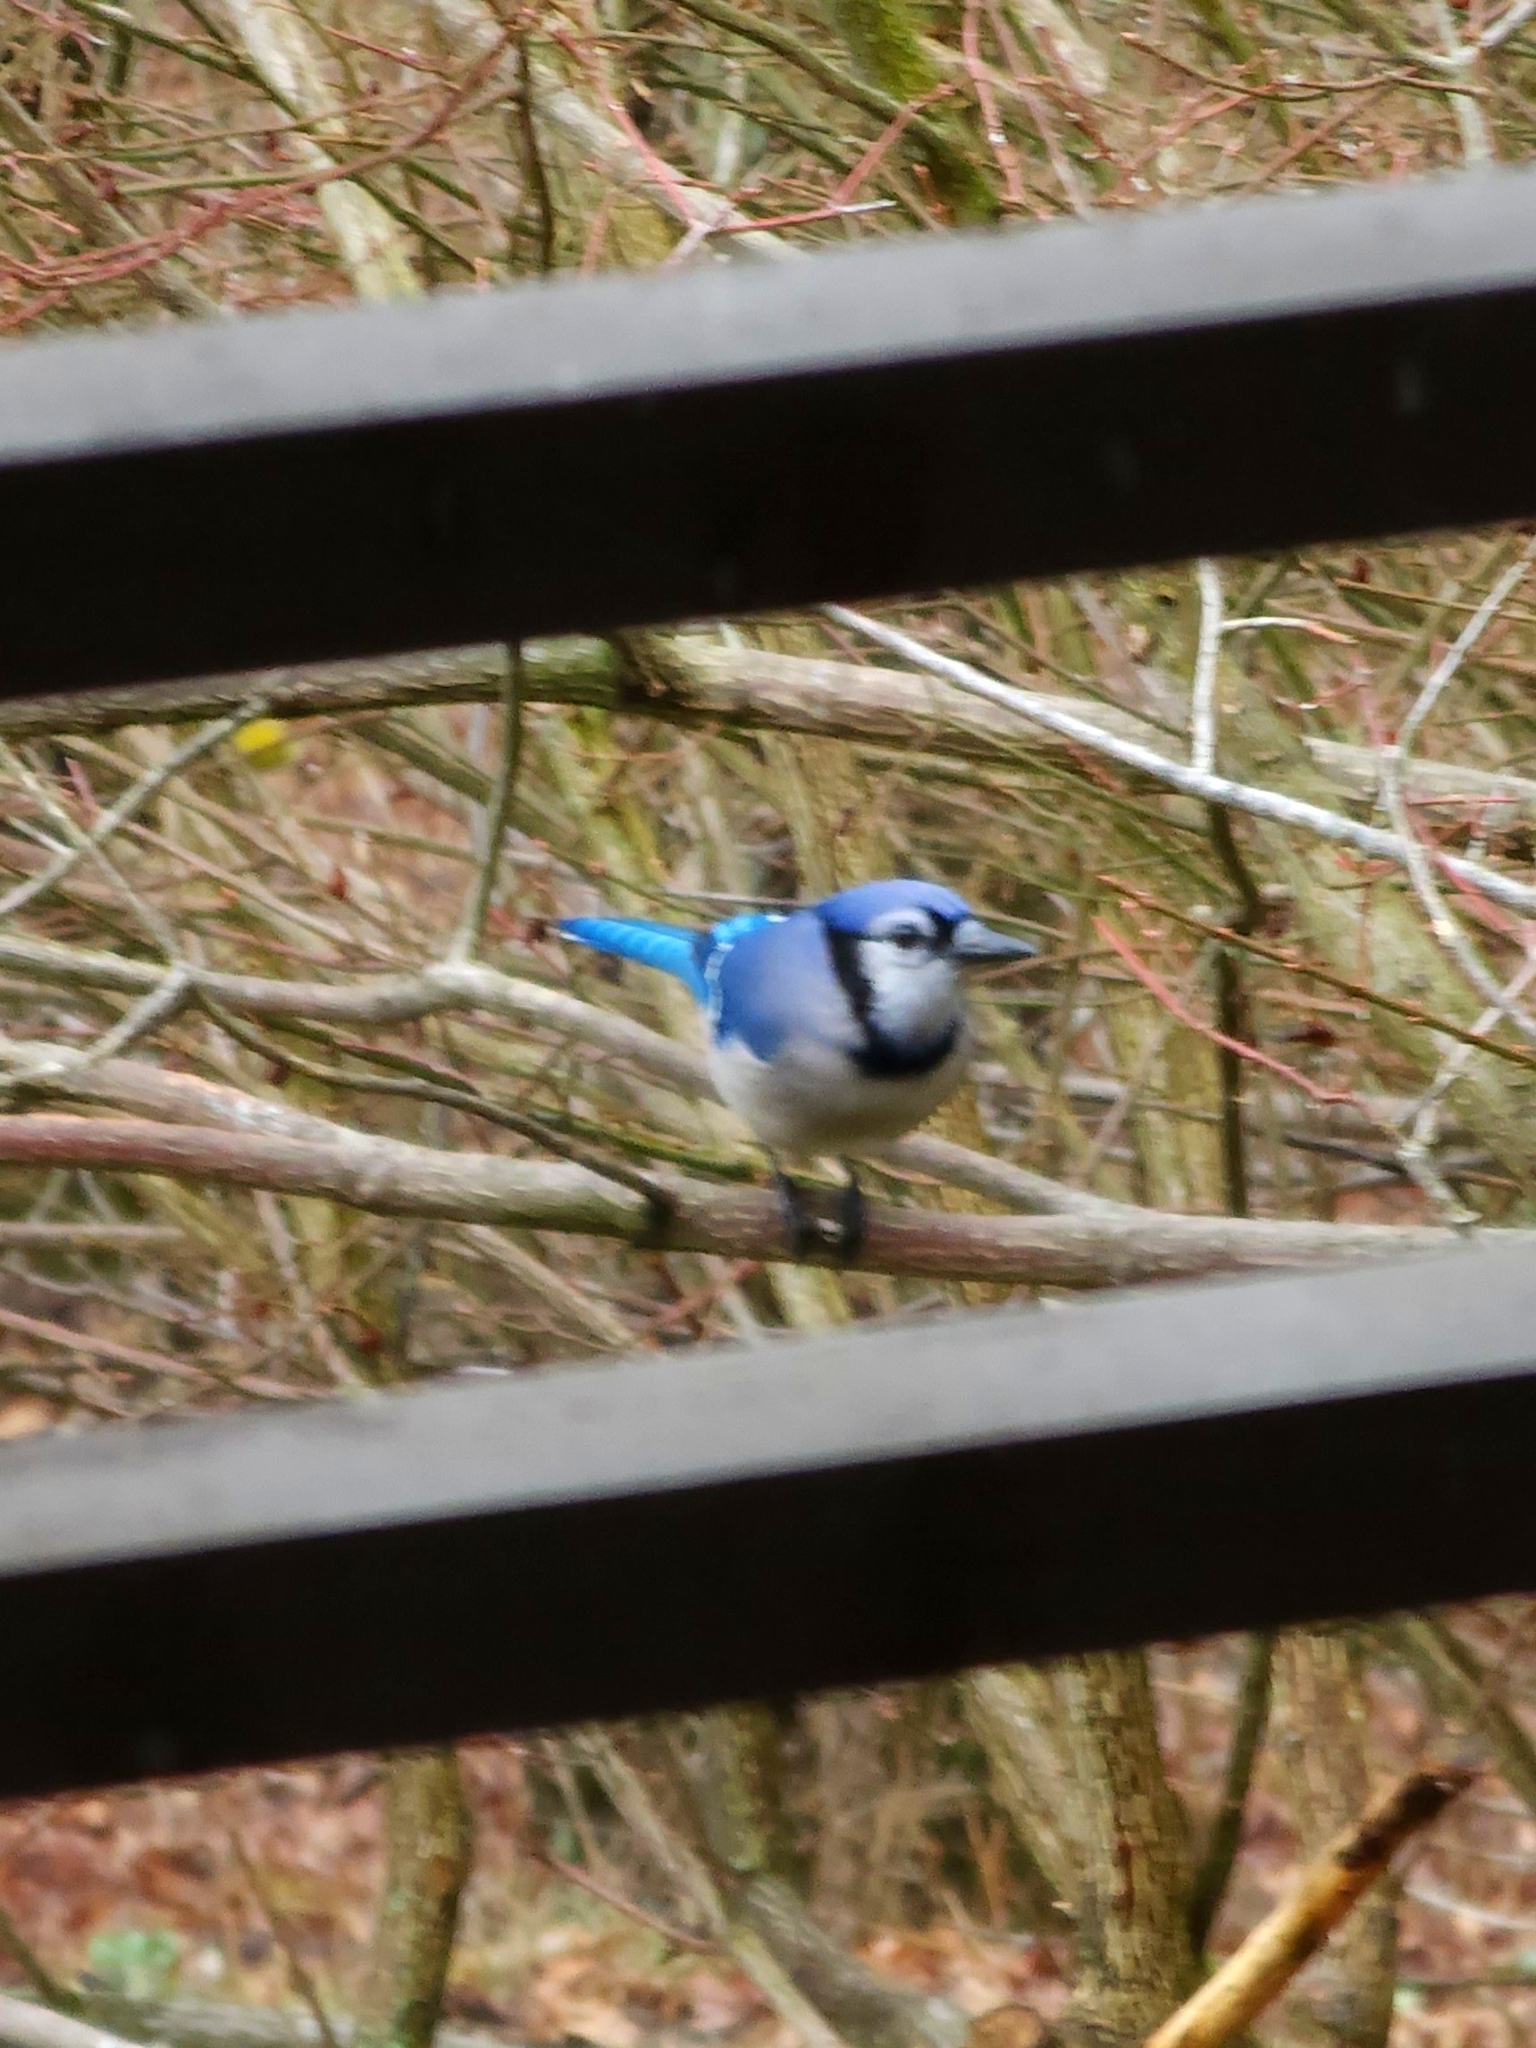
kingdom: Animalia
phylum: Chordata
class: Aves
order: Passeriformes
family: Corvidae
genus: Cyanocitta
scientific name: Cyanocitta cristata
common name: Blue jay
